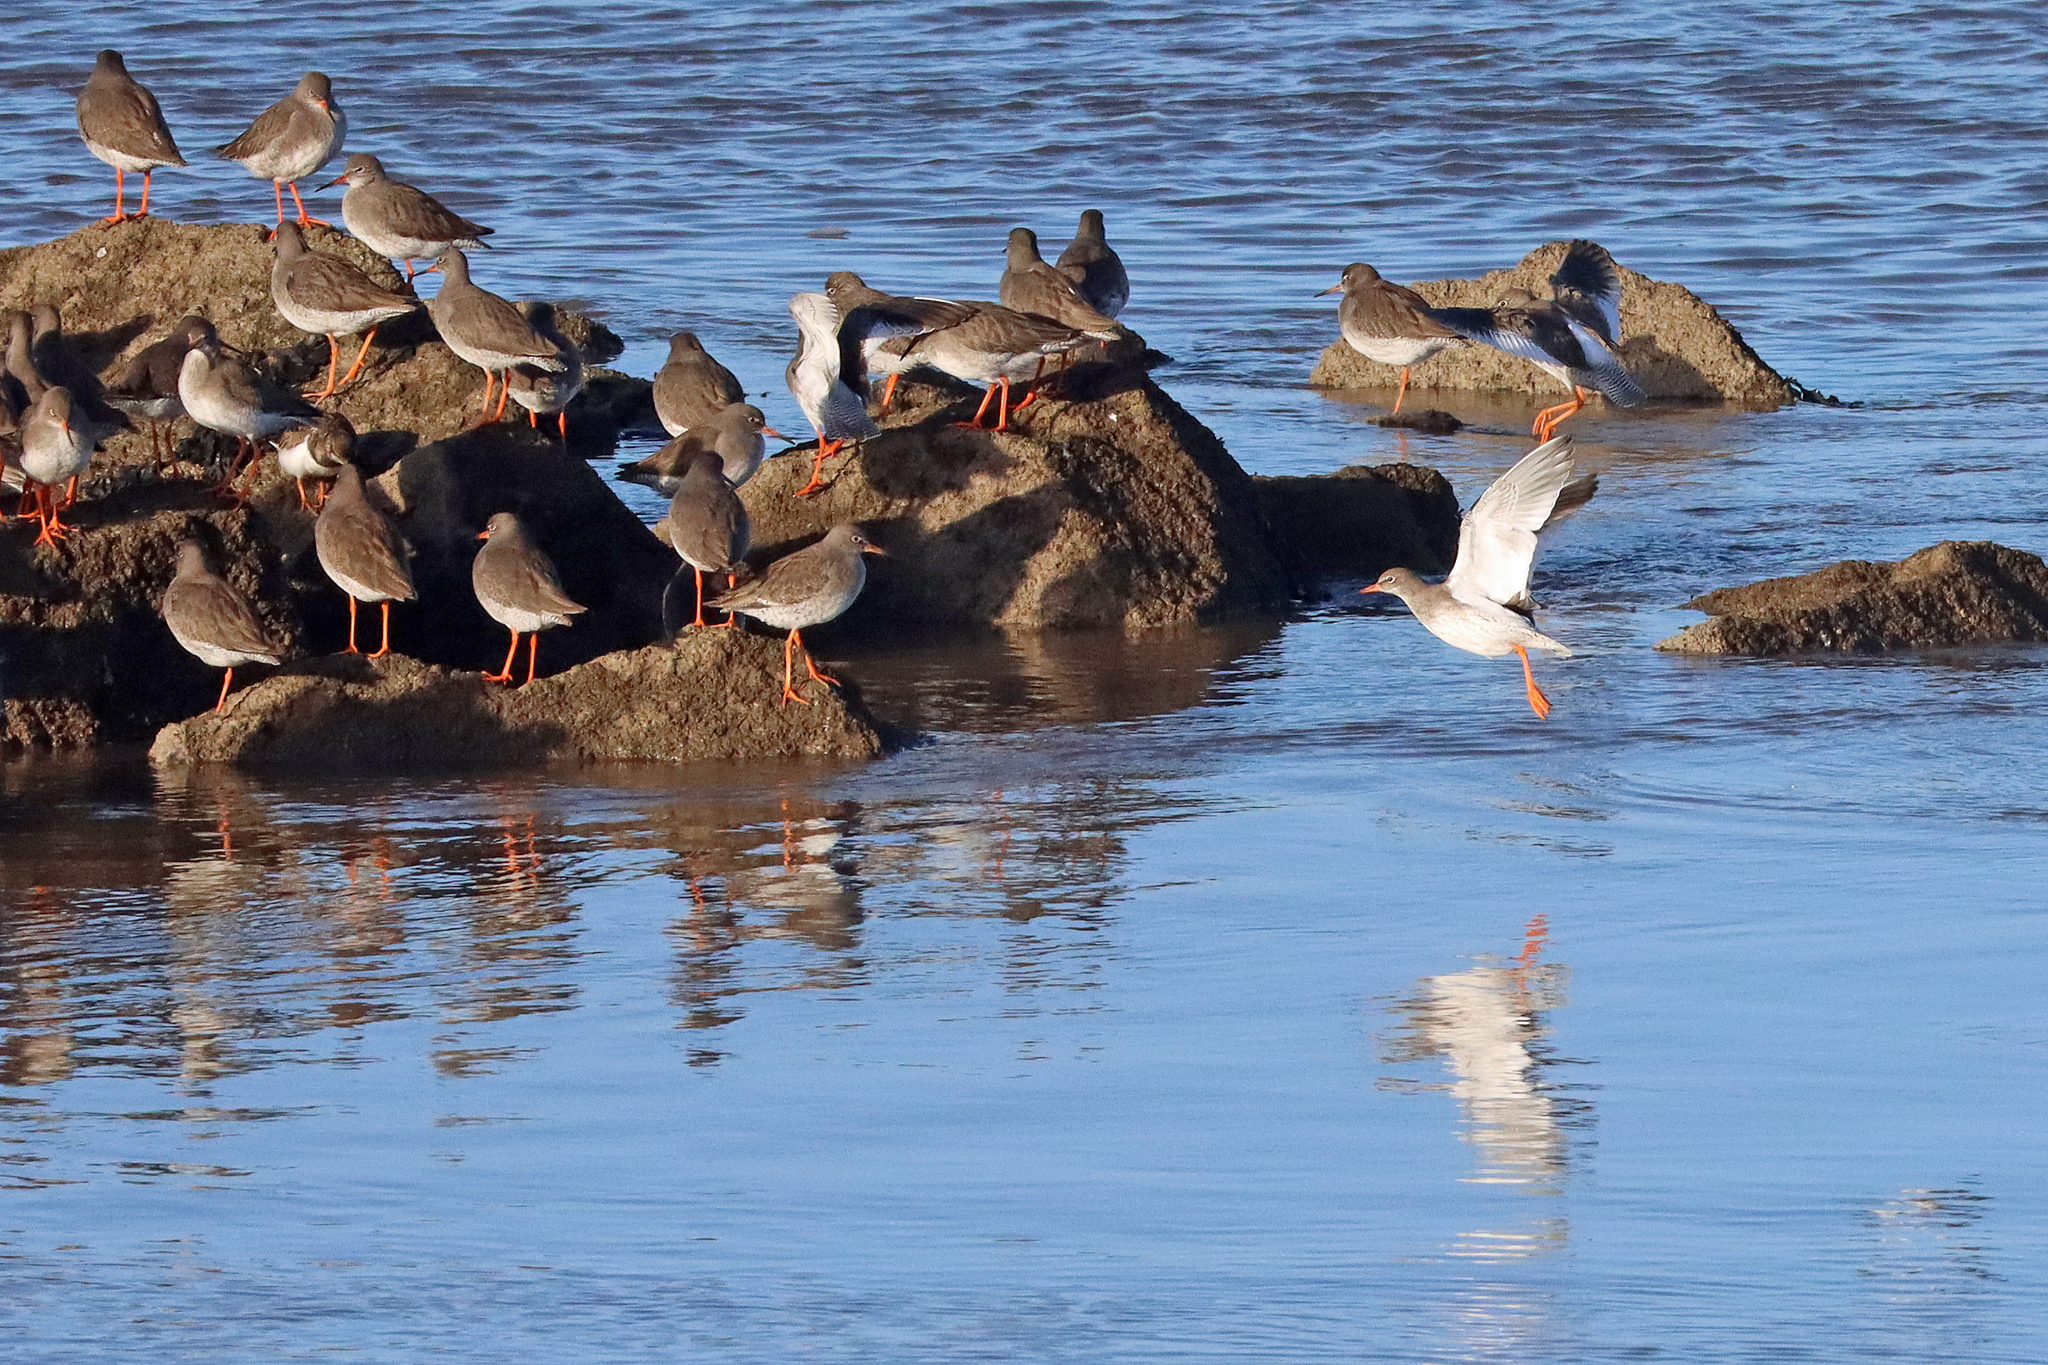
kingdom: Animalia
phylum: Chordata
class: Aves
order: Charadriiformes
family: Scolopacidae
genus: Tringa
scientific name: Tringa totanus
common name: Common redshank
